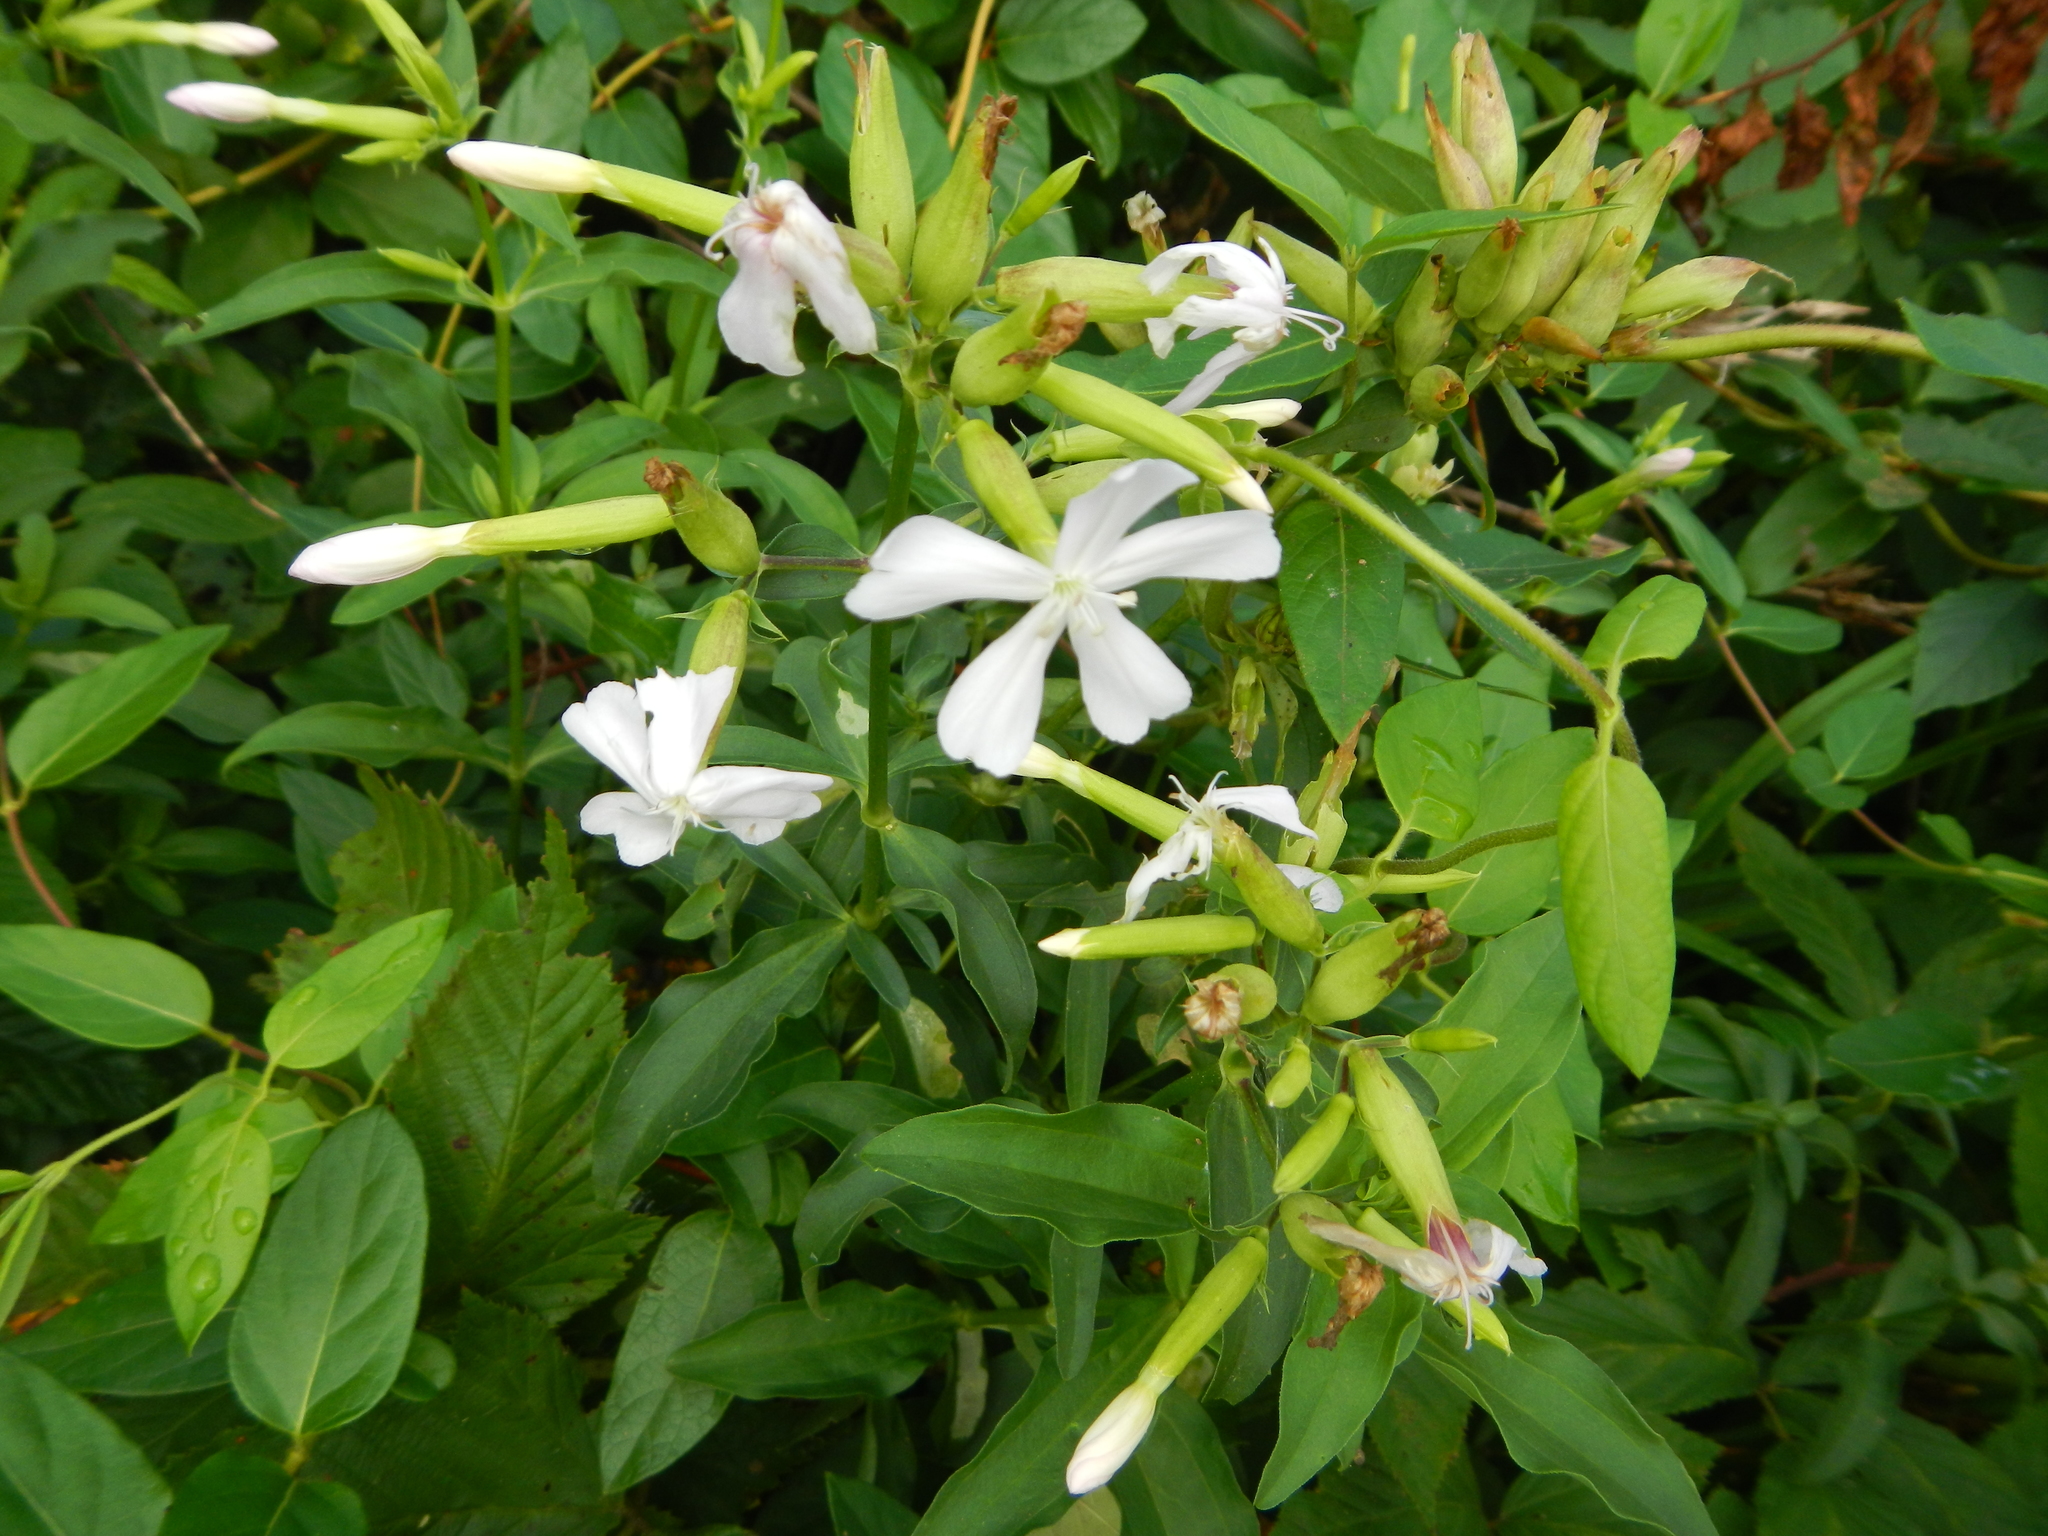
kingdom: Plantae
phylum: Tracheophyta
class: Magnoliopsida
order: Caryophyllales
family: Caryophyllaceae
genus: Saponaria
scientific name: Saponaria officinalis
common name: Soapwort
